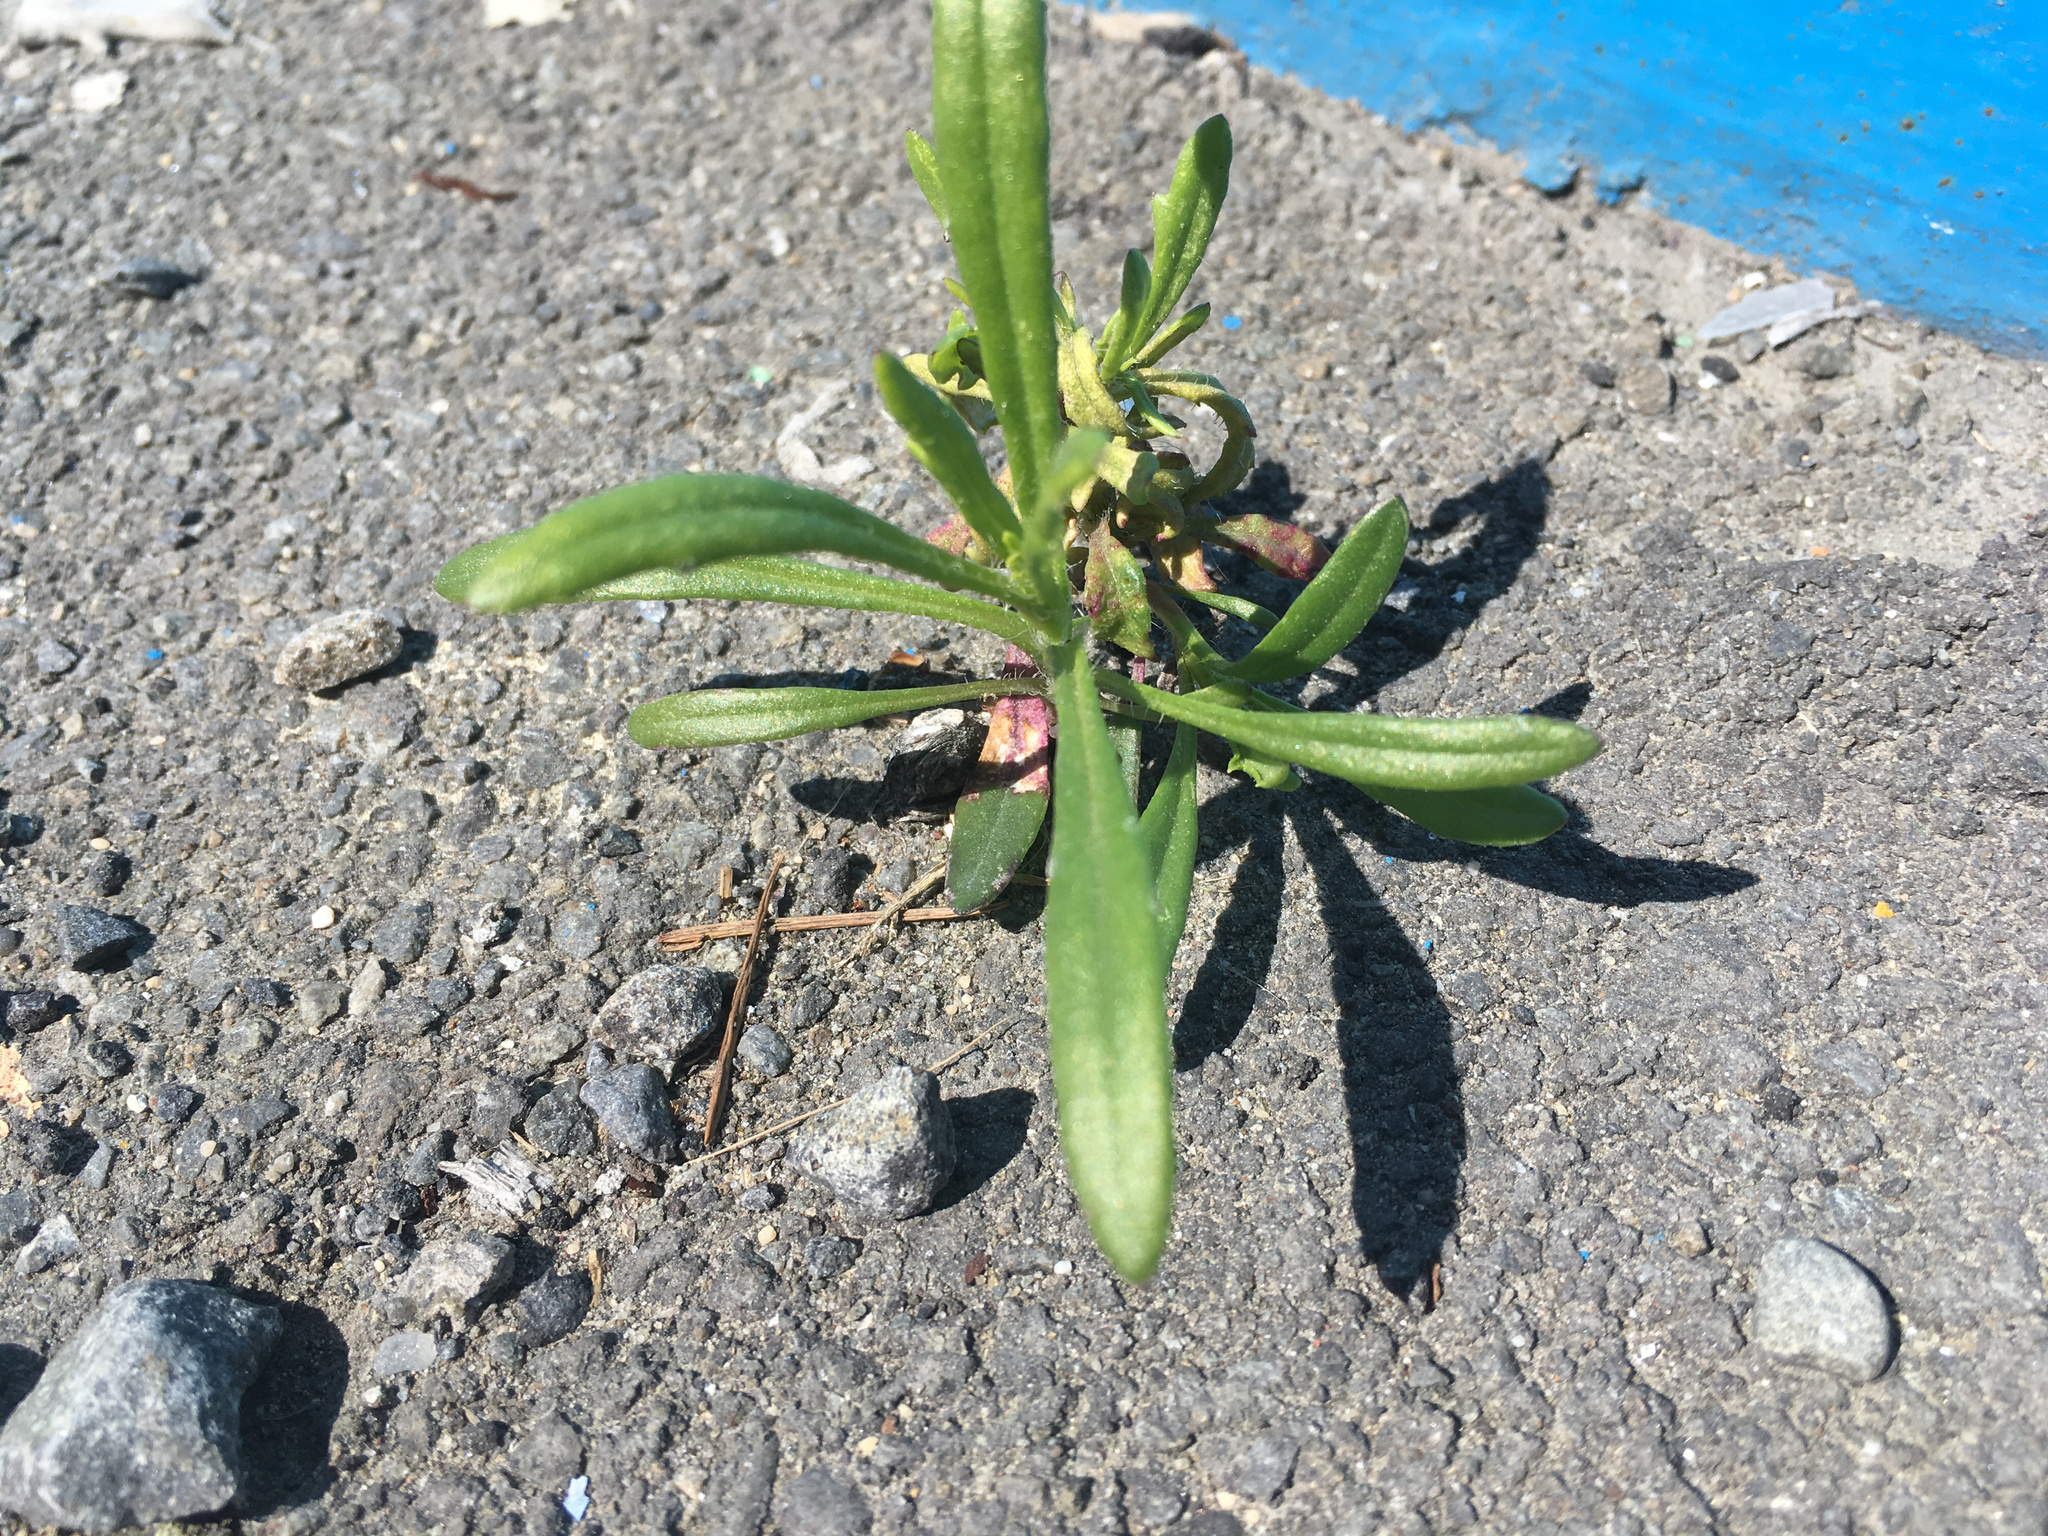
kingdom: Plantae
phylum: Tracheophyta
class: Magnoliopsida
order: Asterales
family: Asteraceae
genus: Senecio
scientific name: Senecio skirrhodon
